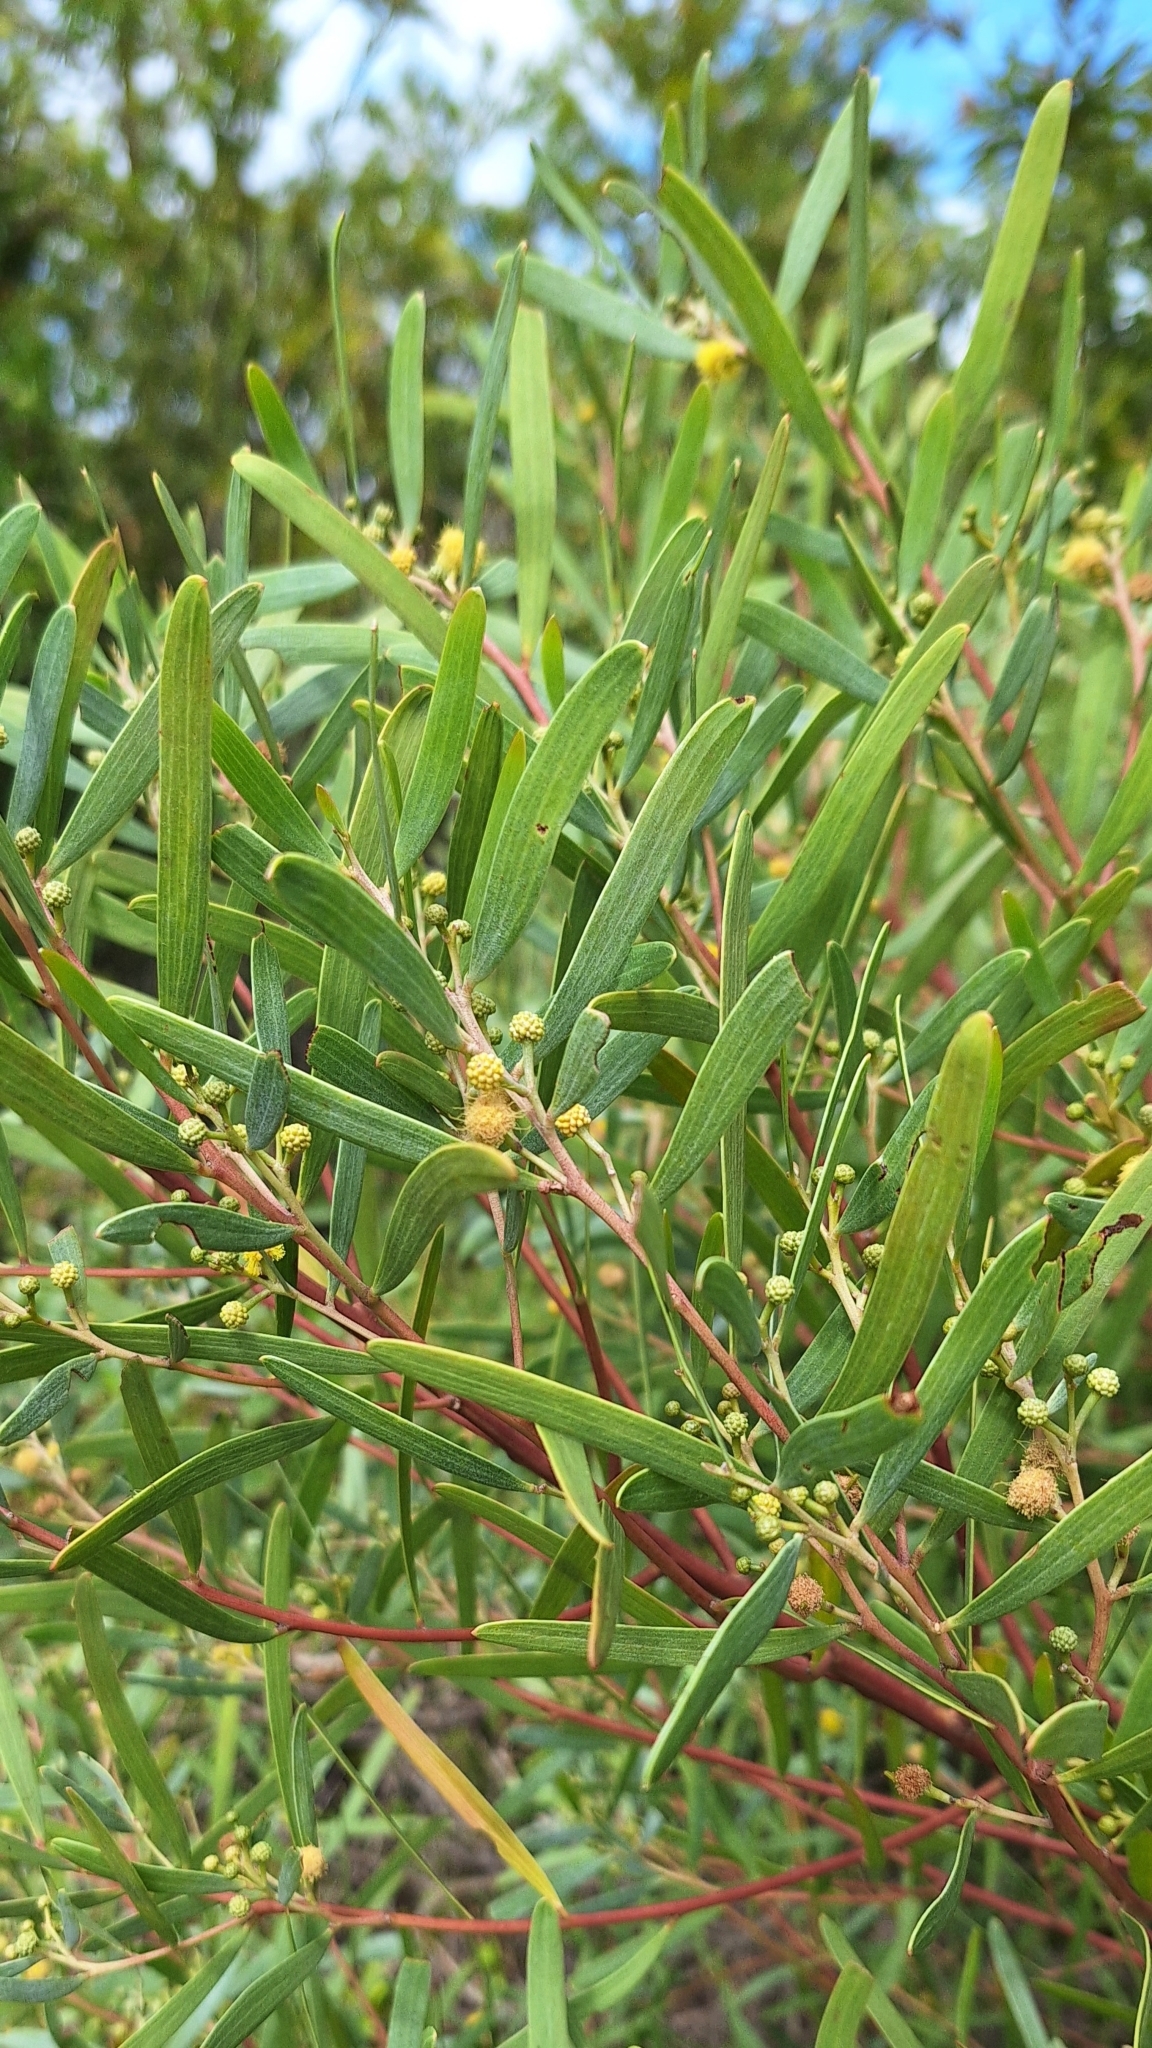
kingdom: Plantae
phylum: Tracheophyta
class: Magnoliopsida
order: Fabales
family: Fabaceae
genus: Acacia
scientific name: Acacia cyclops
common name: Coastal wattle
